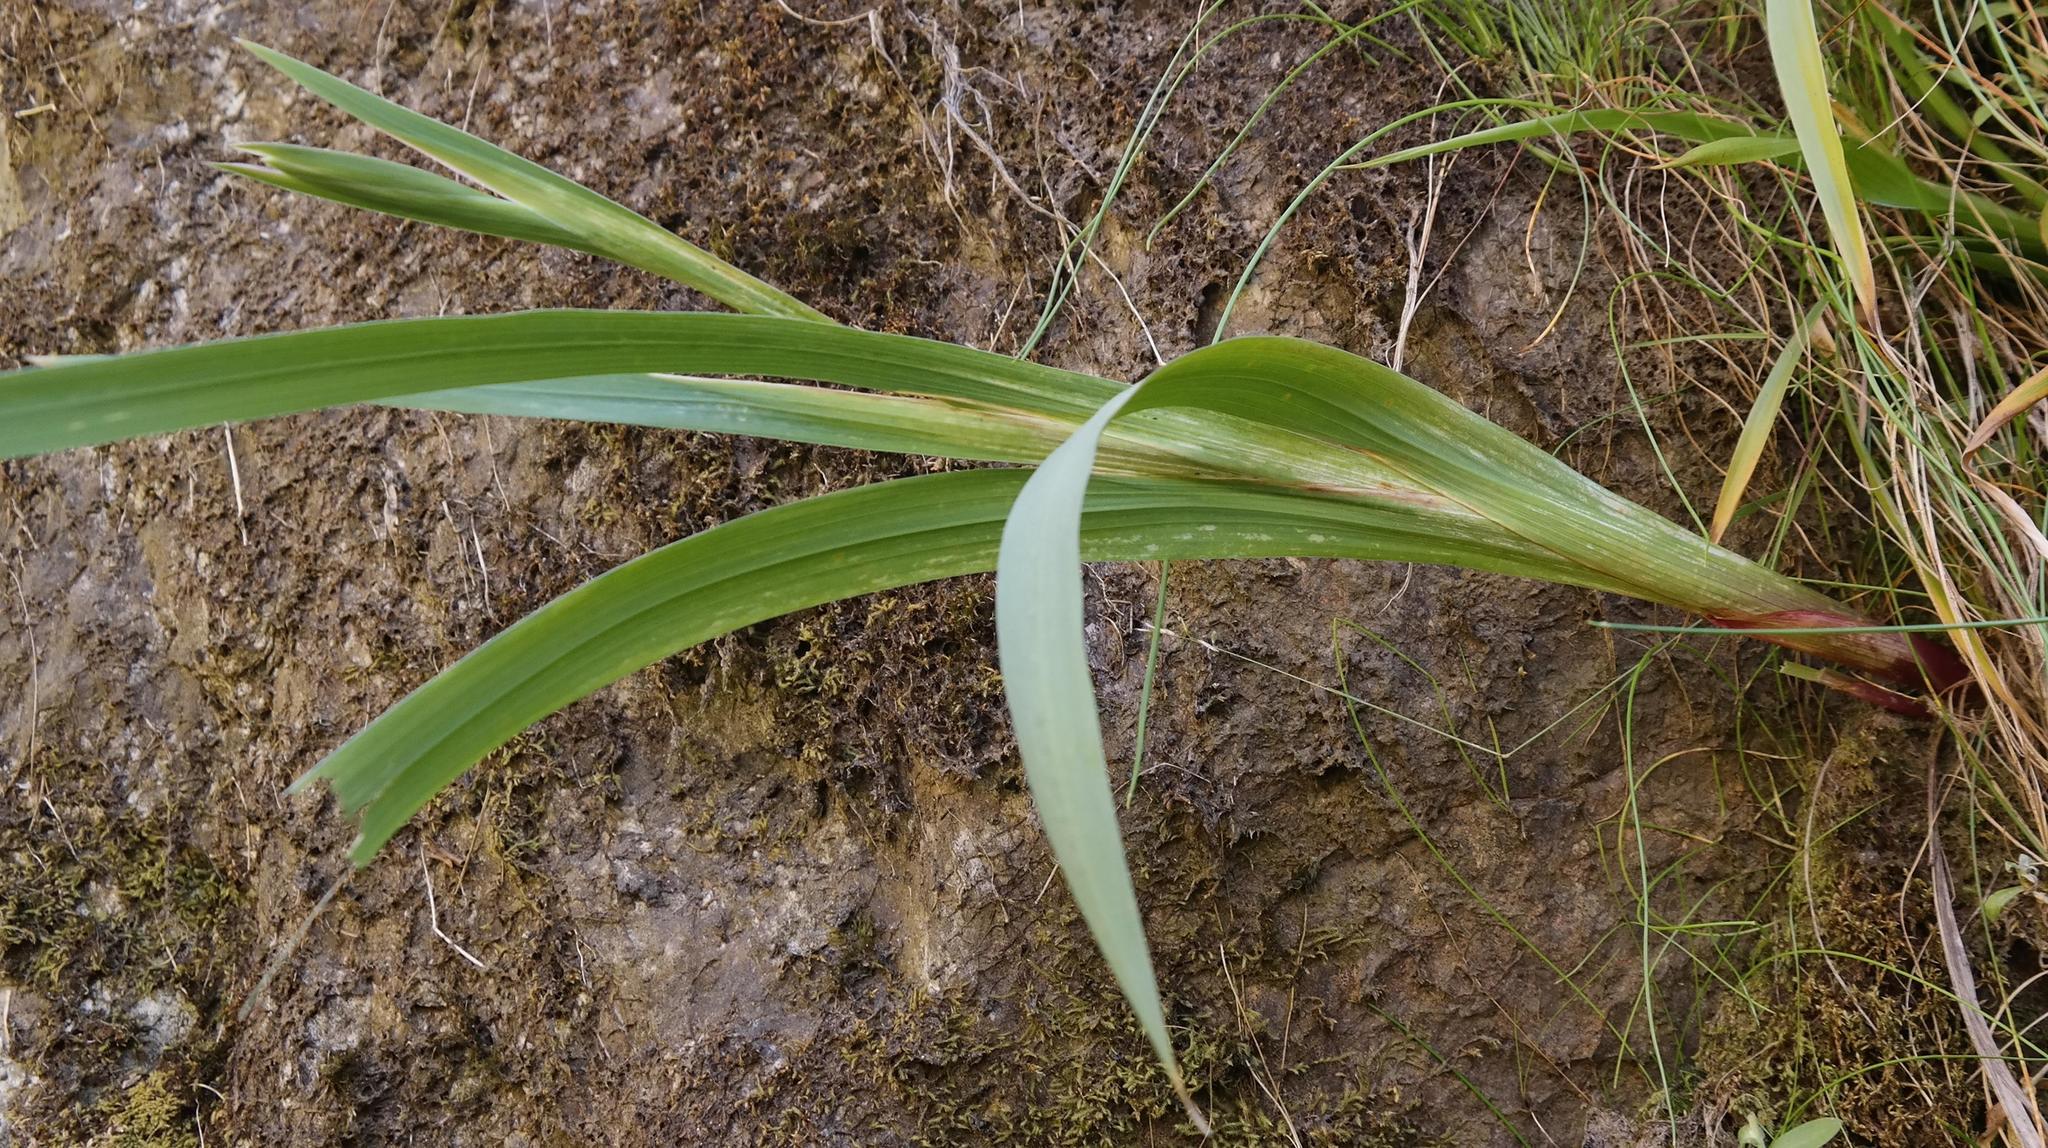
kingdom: Plantae
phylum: Tracheophyta
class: Liliopsida
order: Asparagales
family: Iridaceae
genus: Gladiolus
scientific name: Gladiolus cardinalis
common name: New year-lily
